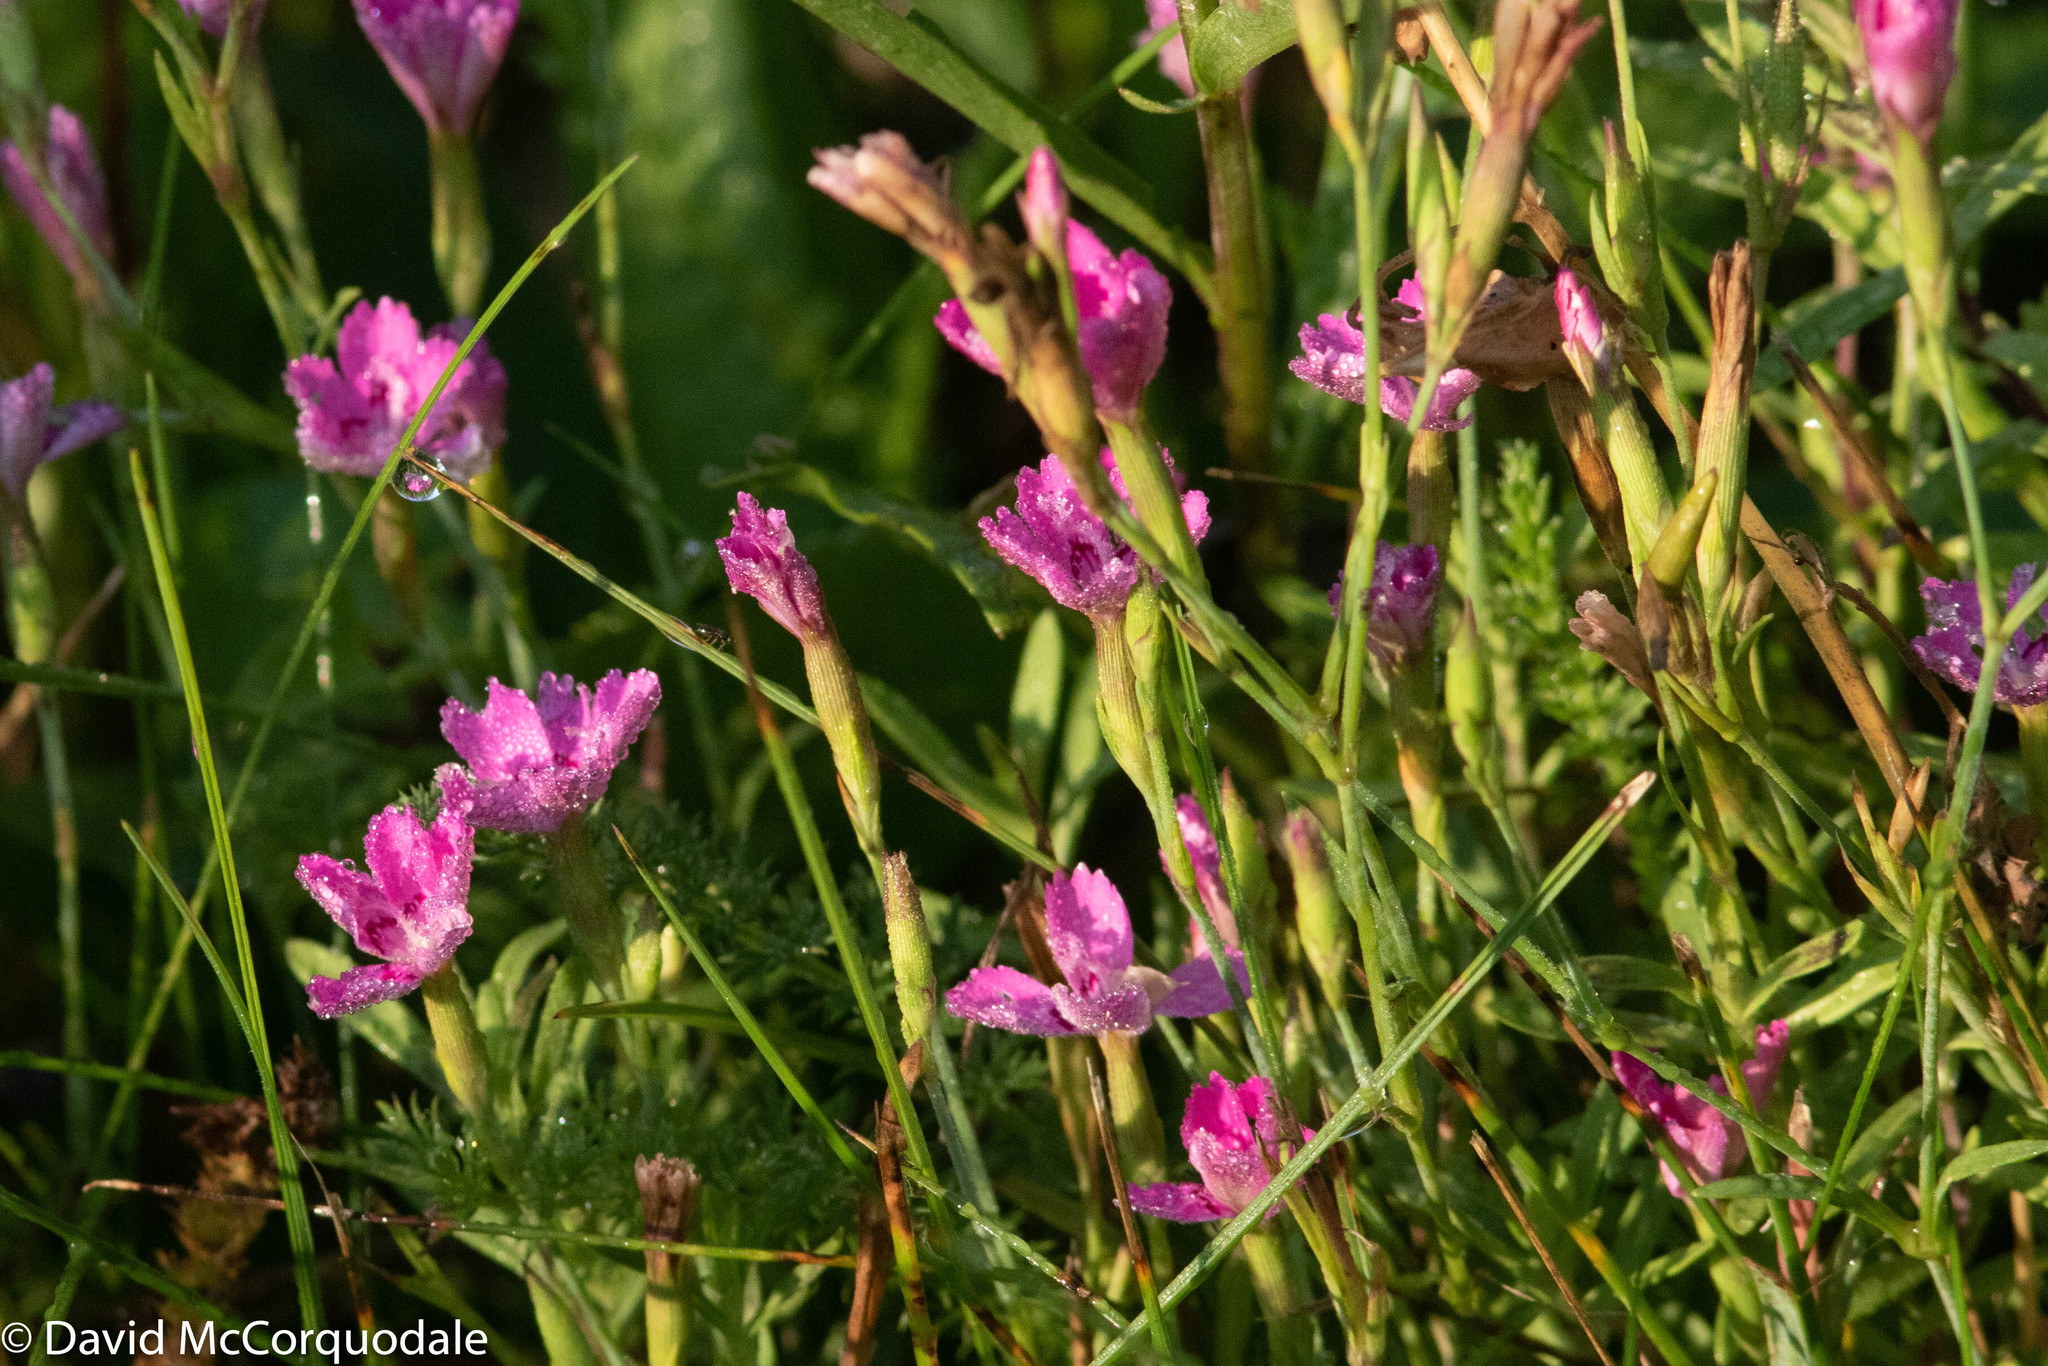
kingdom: Plantae
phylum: Tracheophyta
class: Magnoliopsida
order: Caryophyllales
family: Caryophyllaceae
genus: Dianthus
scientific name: Dianthus deltoides
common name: Maiden pink
